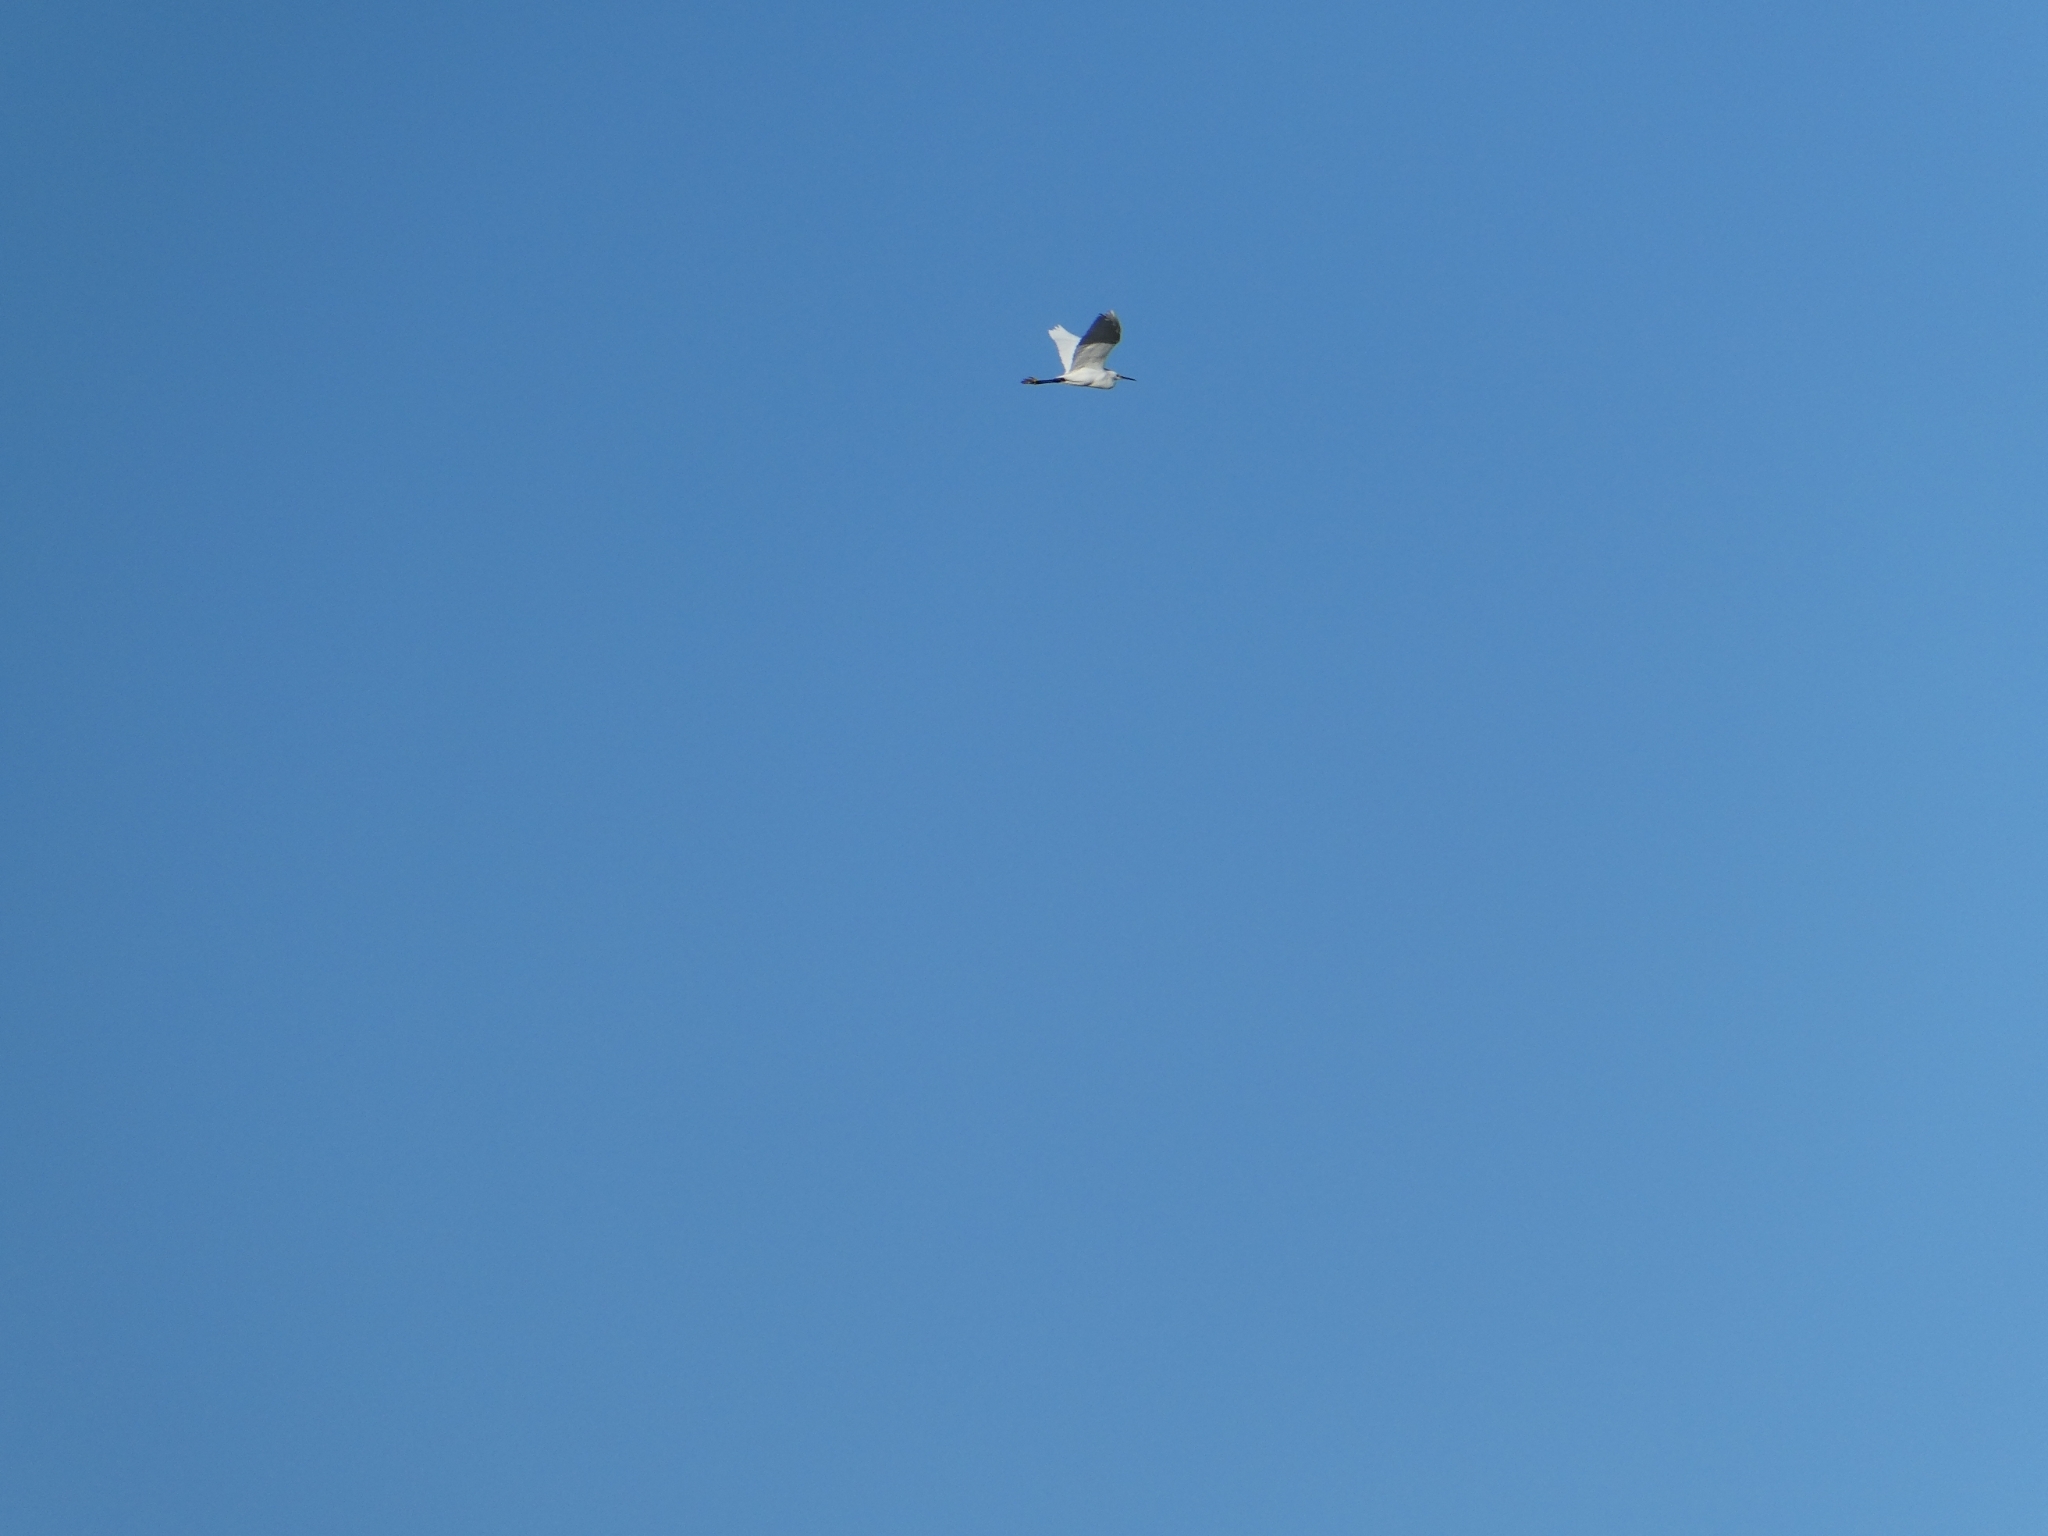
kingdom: Animalia
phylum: Chordata
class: Aves
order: Pelecaniformes
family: Ardeidae
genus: Egretta
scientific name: Egretta thula
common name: Snowy egret
